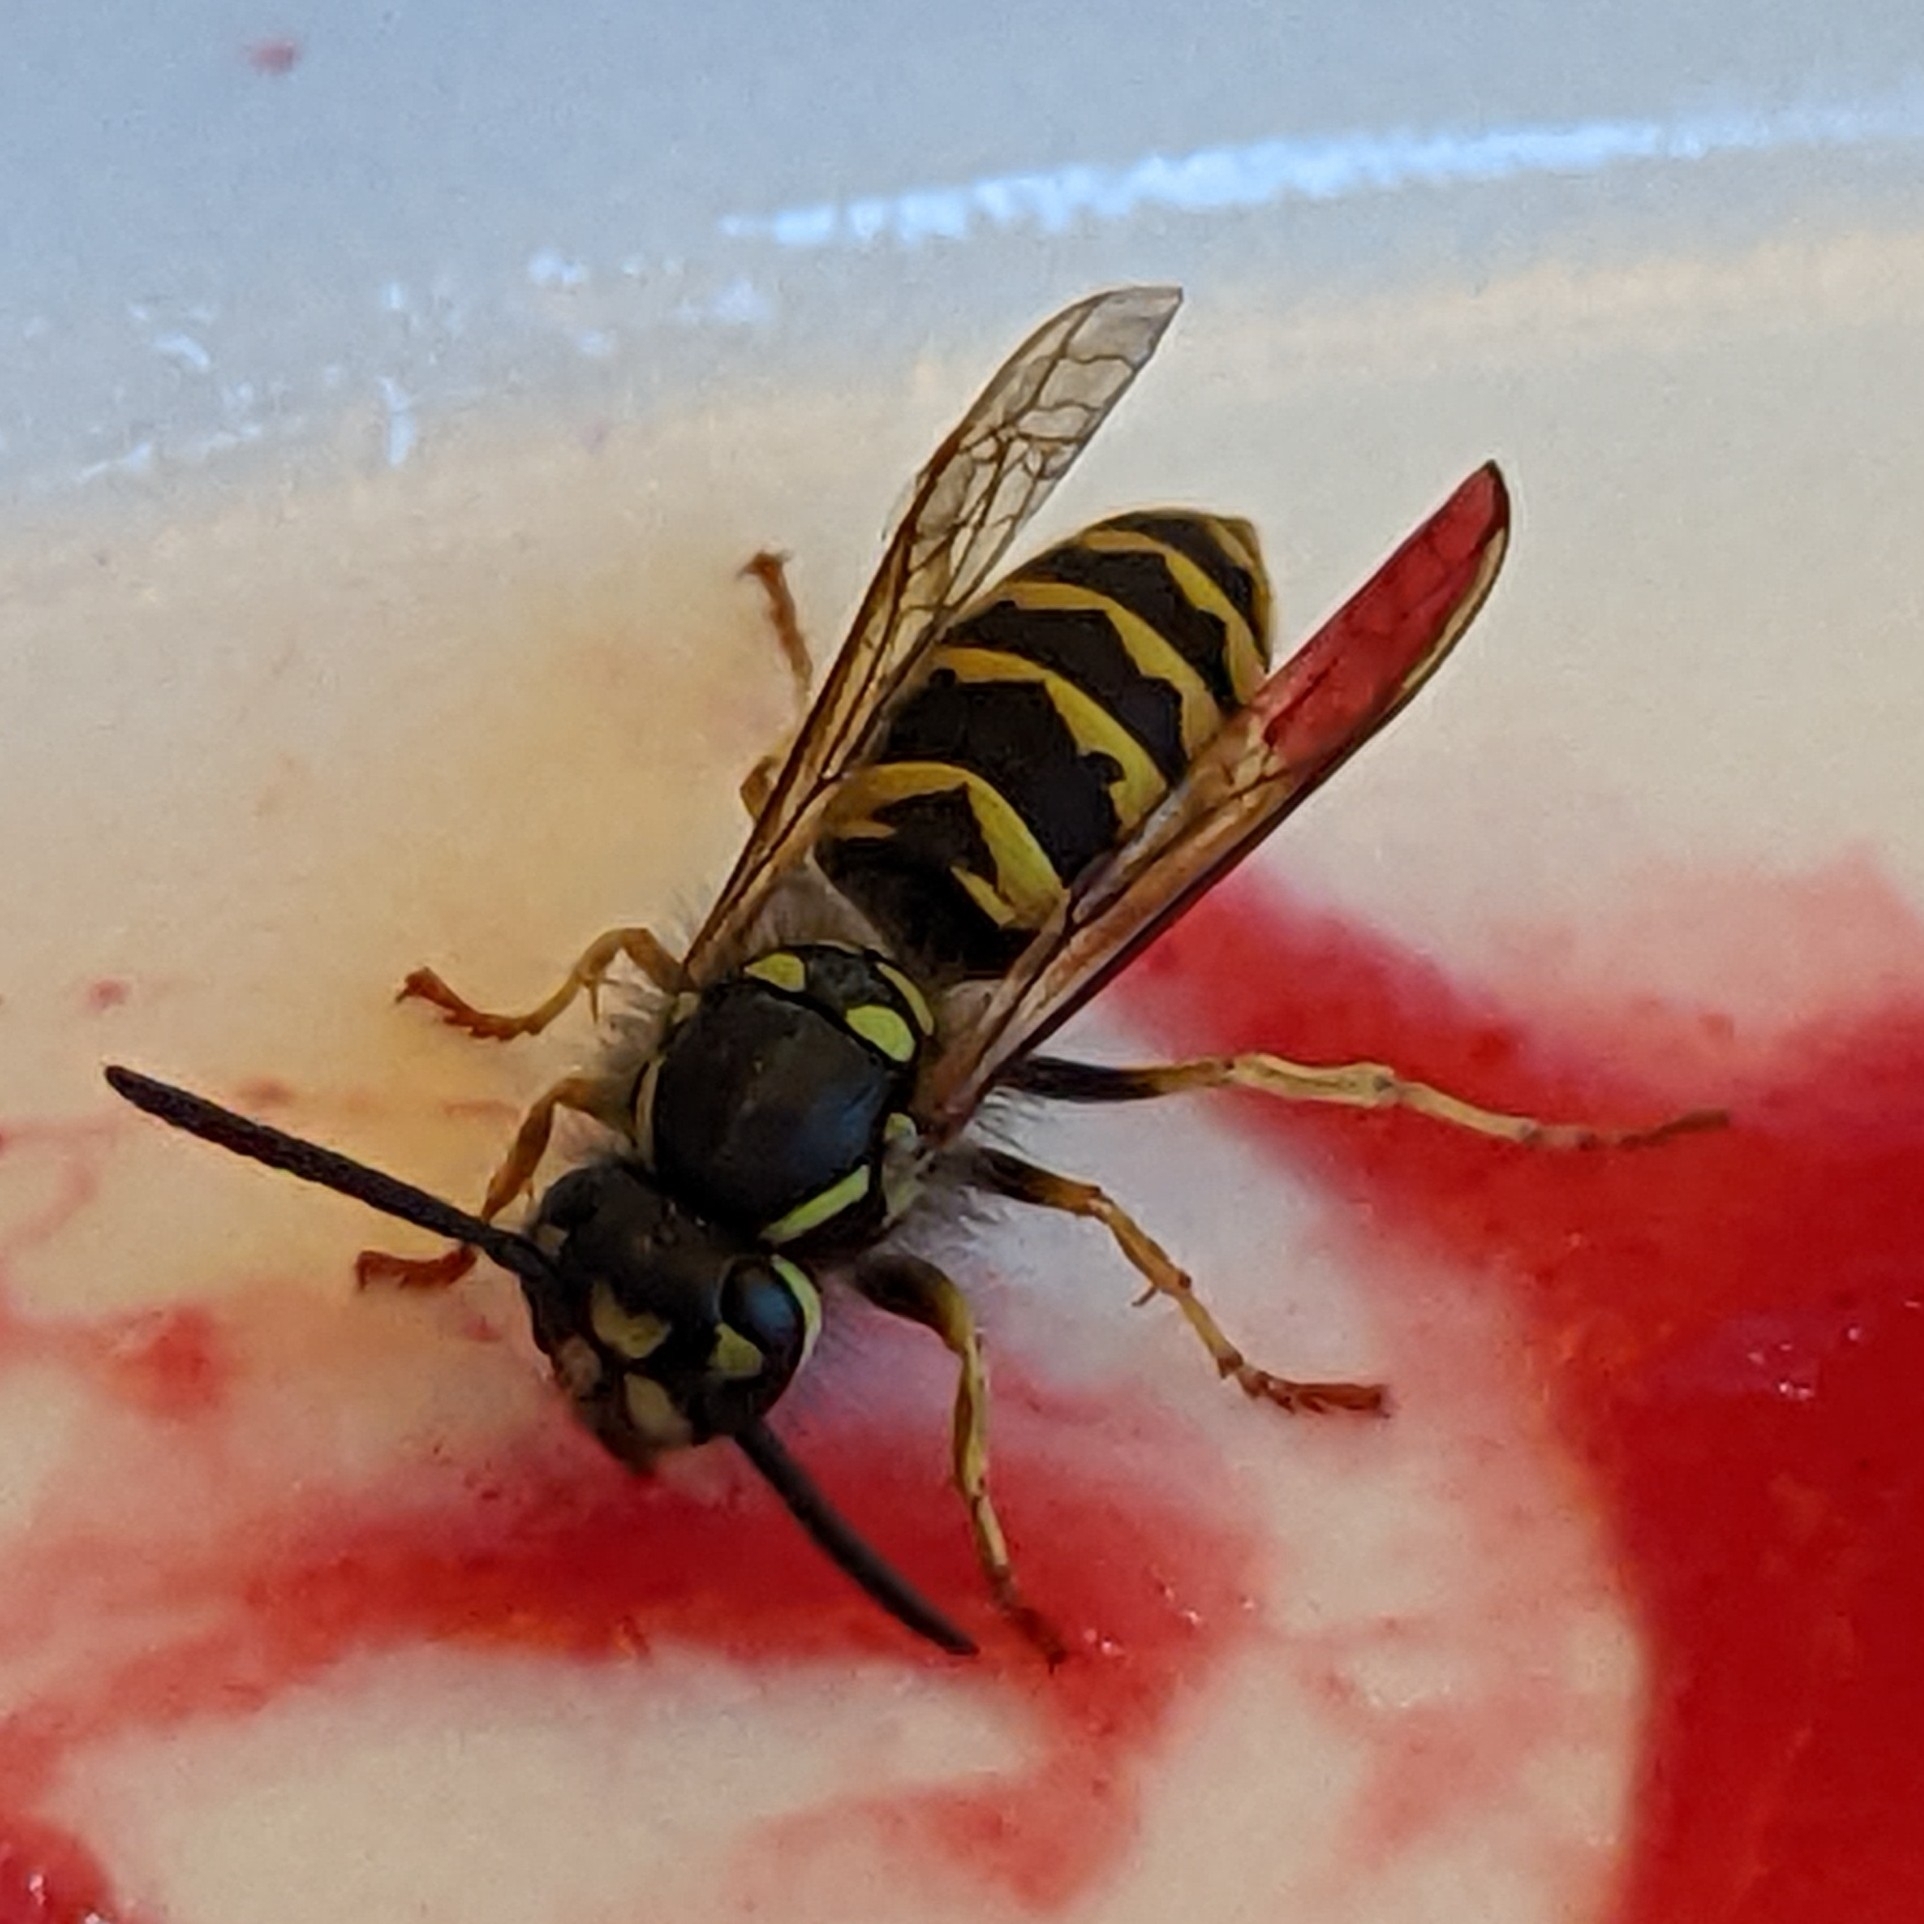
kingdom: Animalia
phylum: Arthropoda
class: Insecta
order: Hymenoptera
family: Vespidae
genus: Vespula
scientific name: Vespula vulgaris
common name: Common wasp
